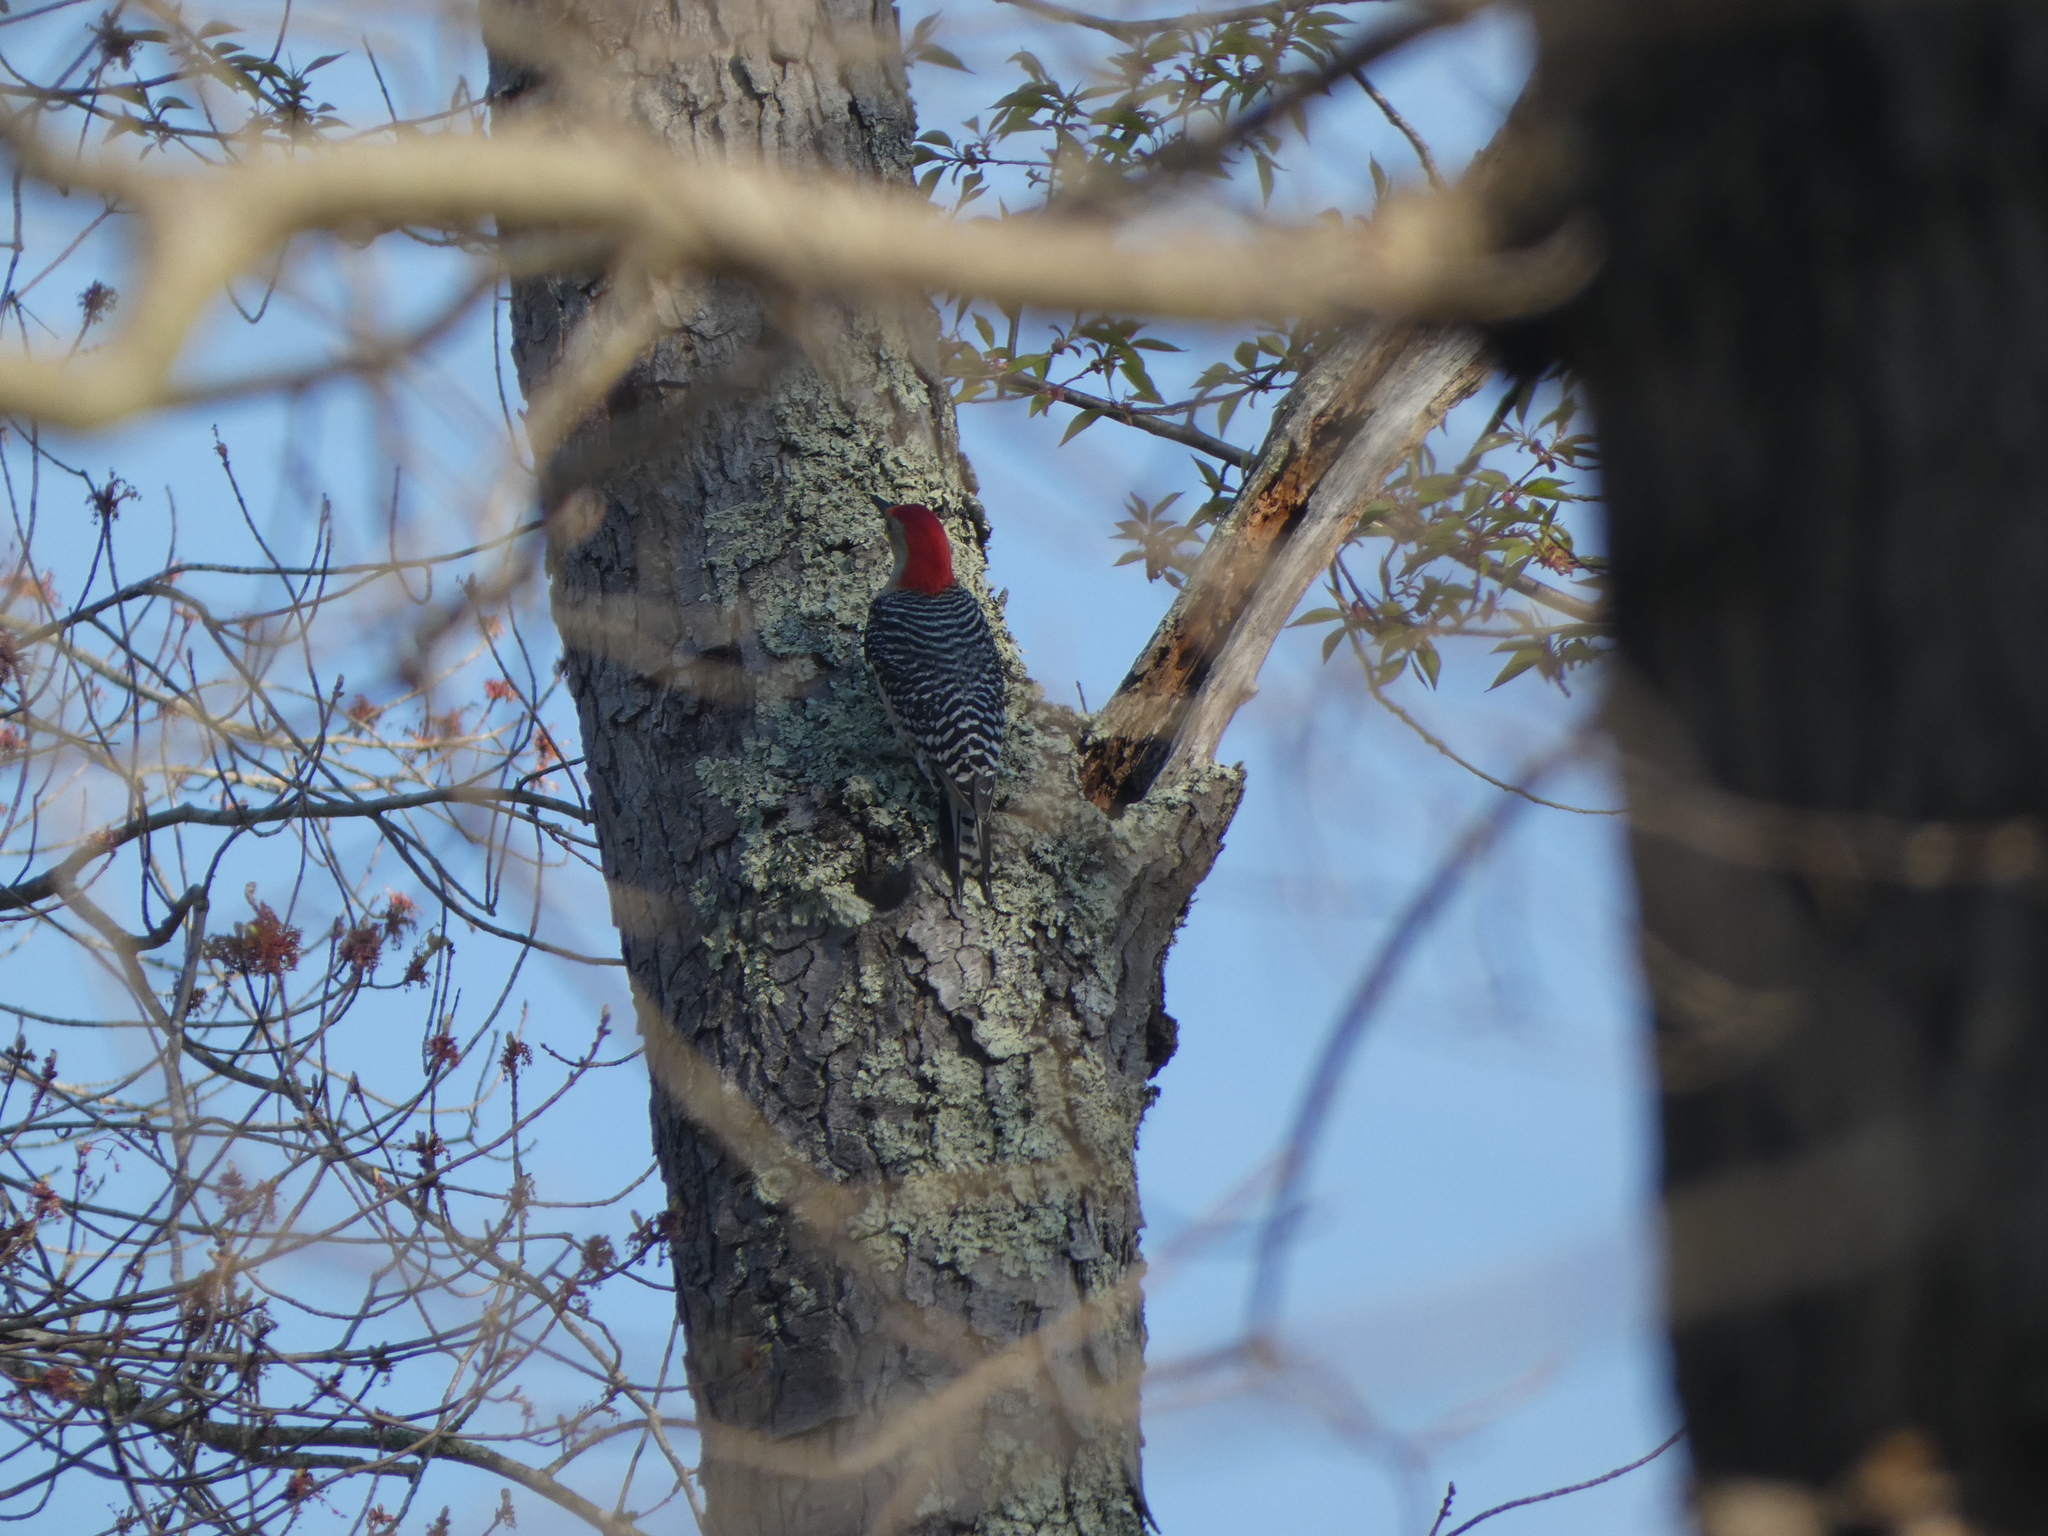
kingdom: Animalia
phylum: Chordata
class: Aves
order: Piciformes
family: Picidae
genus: Melanerpes
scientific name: Melanerpes carolinus
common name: Red-bellied woodpecker
